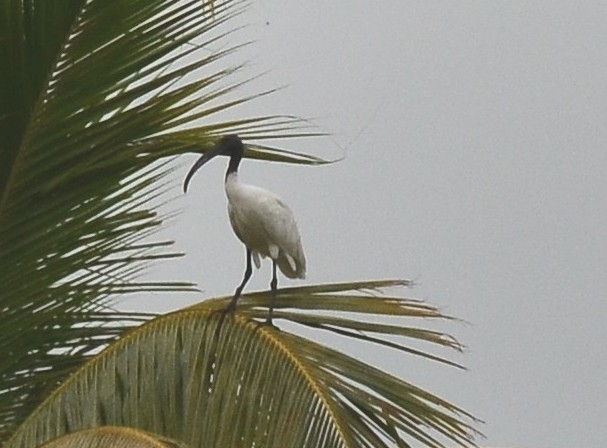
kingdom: Animalia
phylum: Chordata
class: Aves
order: Pelecaniformes
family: Threskiornithidae
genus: Threskiornis
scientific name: Threskiornis melanocephalus
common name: Black-headed ibis
